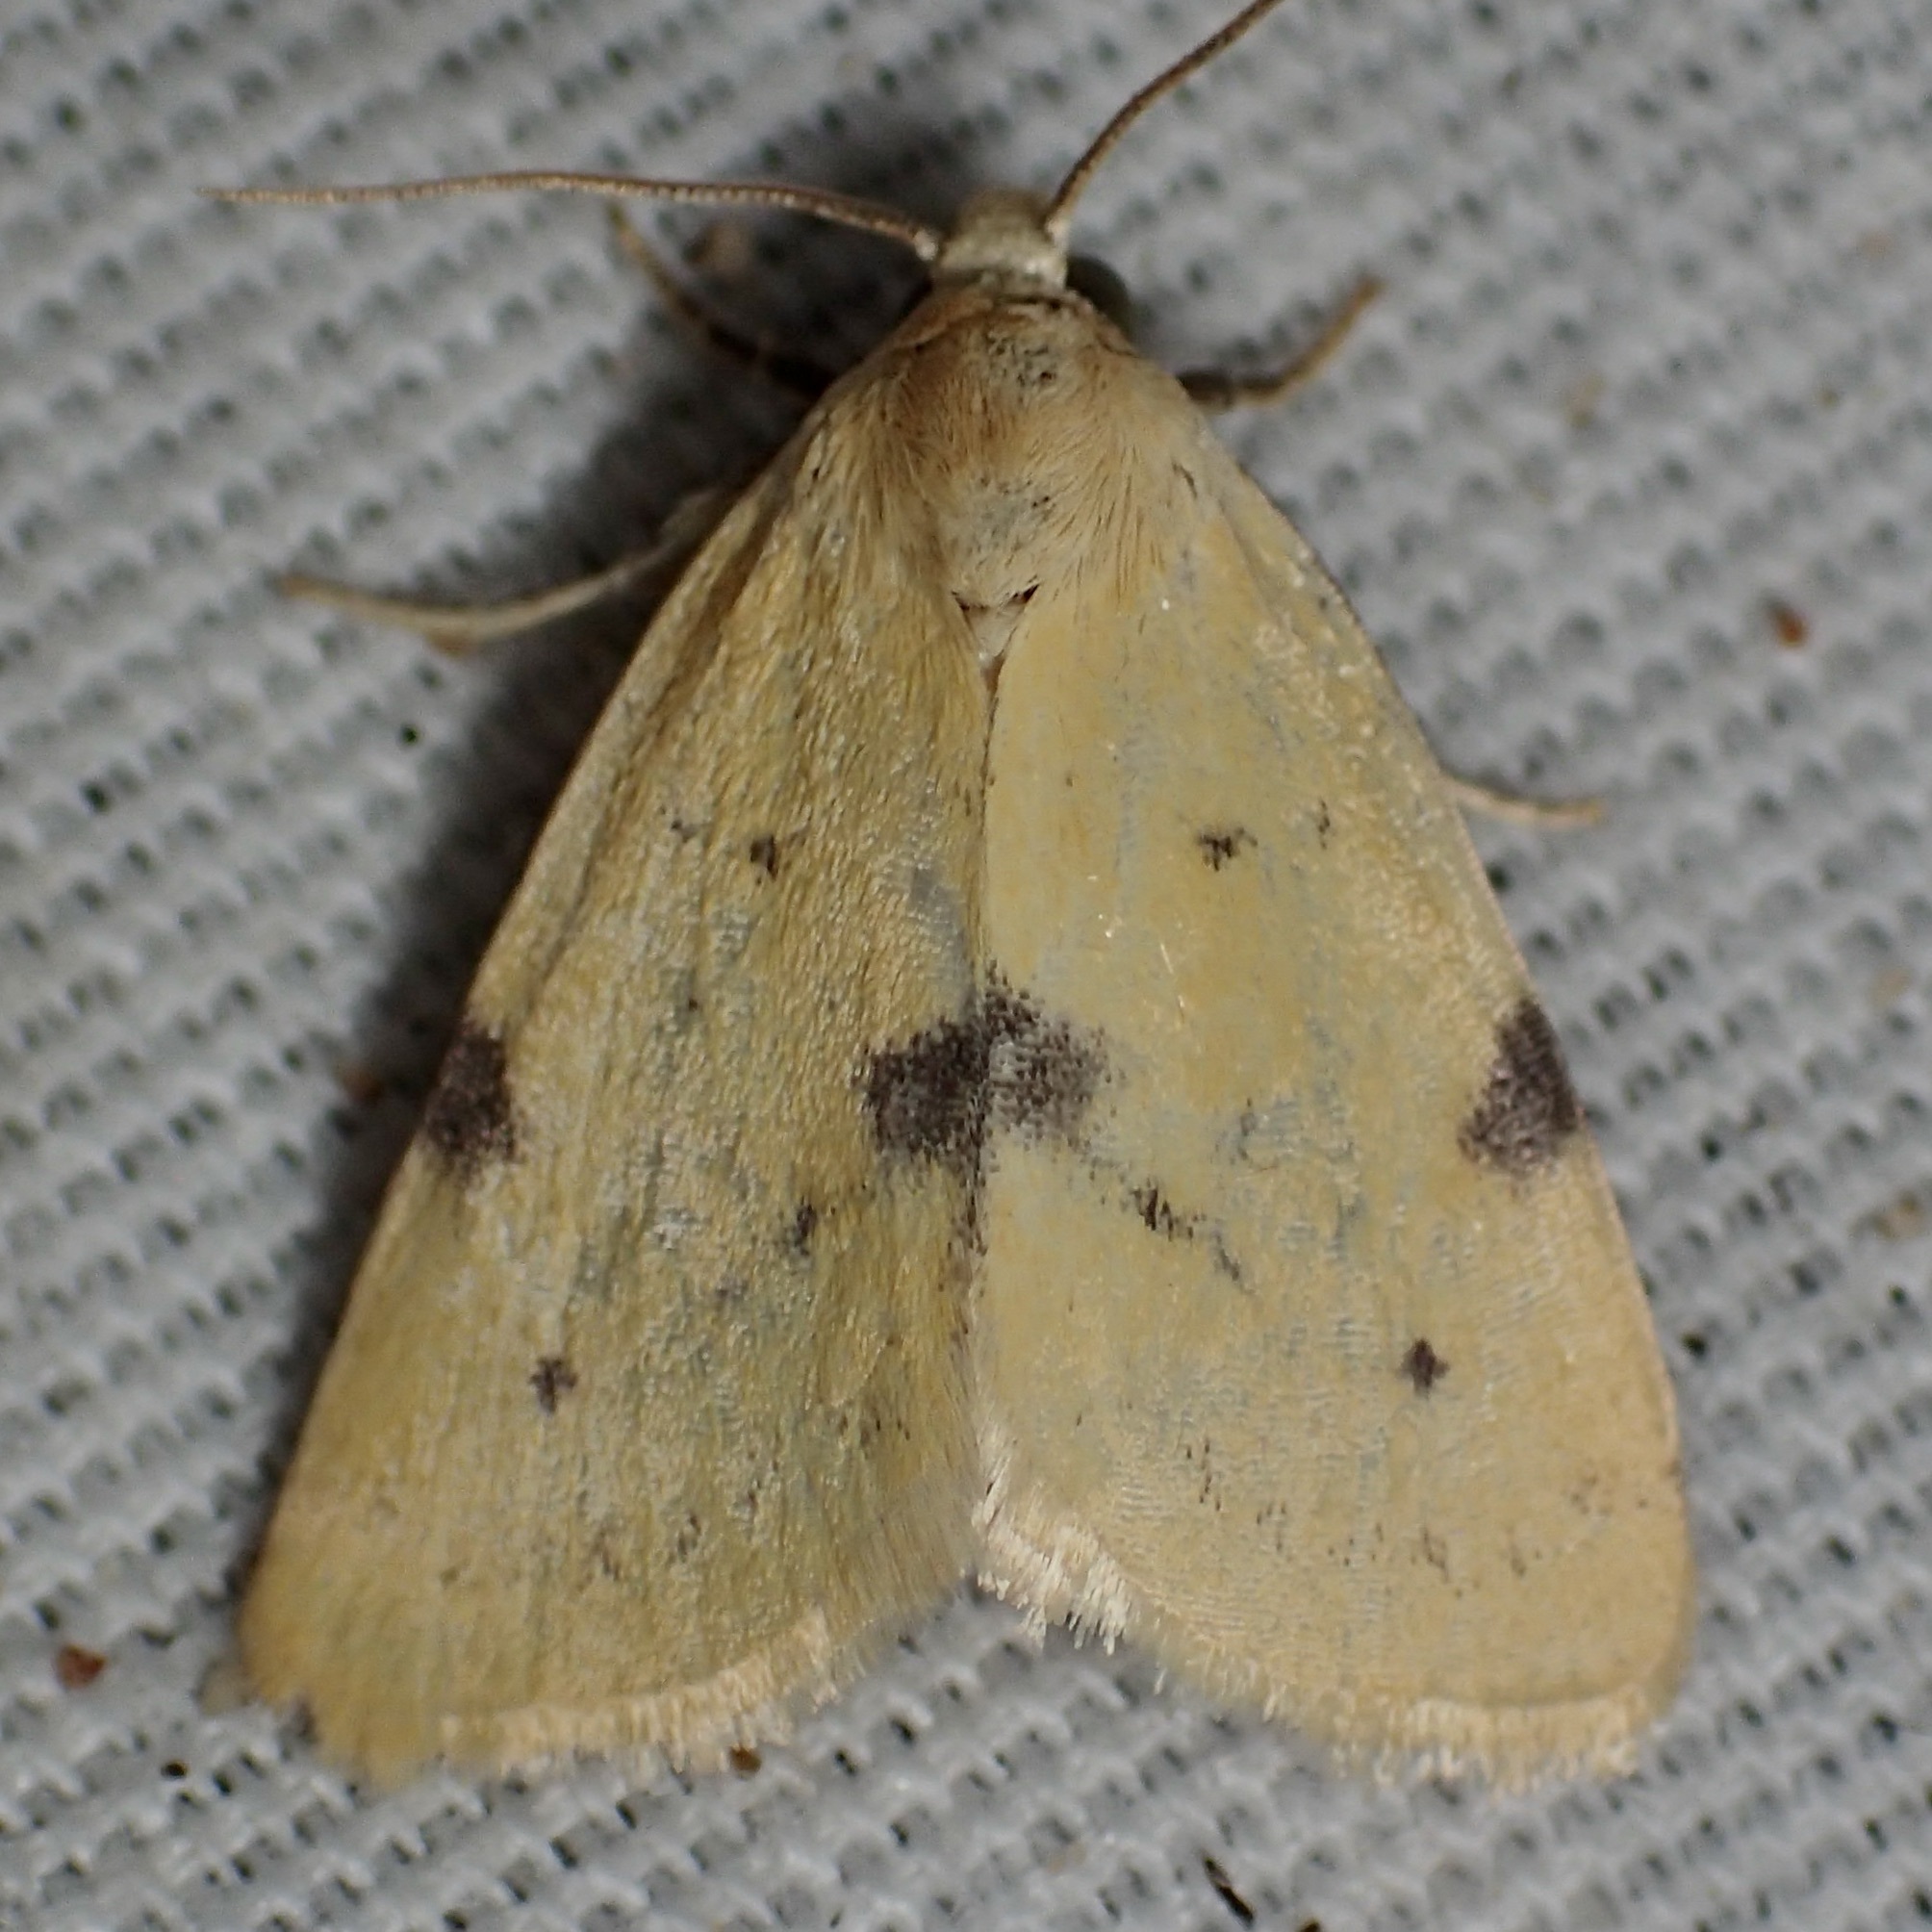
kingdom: Animalia
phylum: Arthropoda
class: Insecta
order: Lepidoptera
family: Noctuidae
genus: Azenia
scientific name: Azenia edentata
